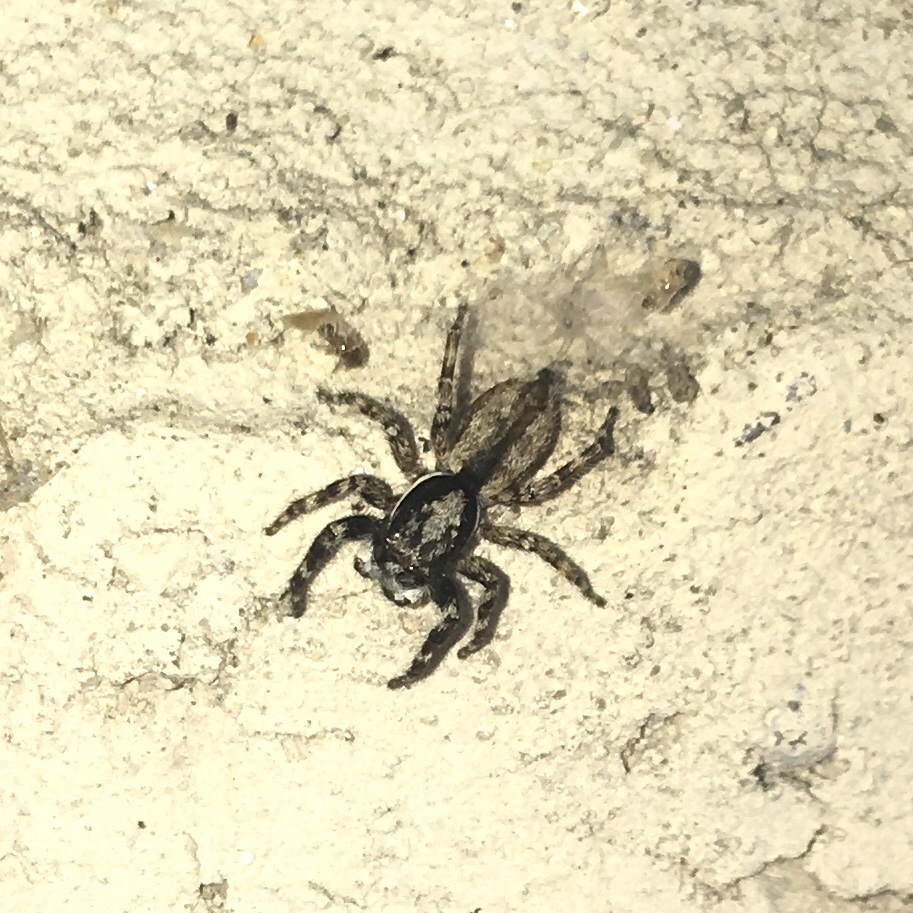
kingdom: Animalia
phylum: Arthropoda
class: Arachnida
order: Araneae
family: Salticidae
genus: Menemerus
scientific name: Menemerus bivittatus
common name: Gray wall jumper
